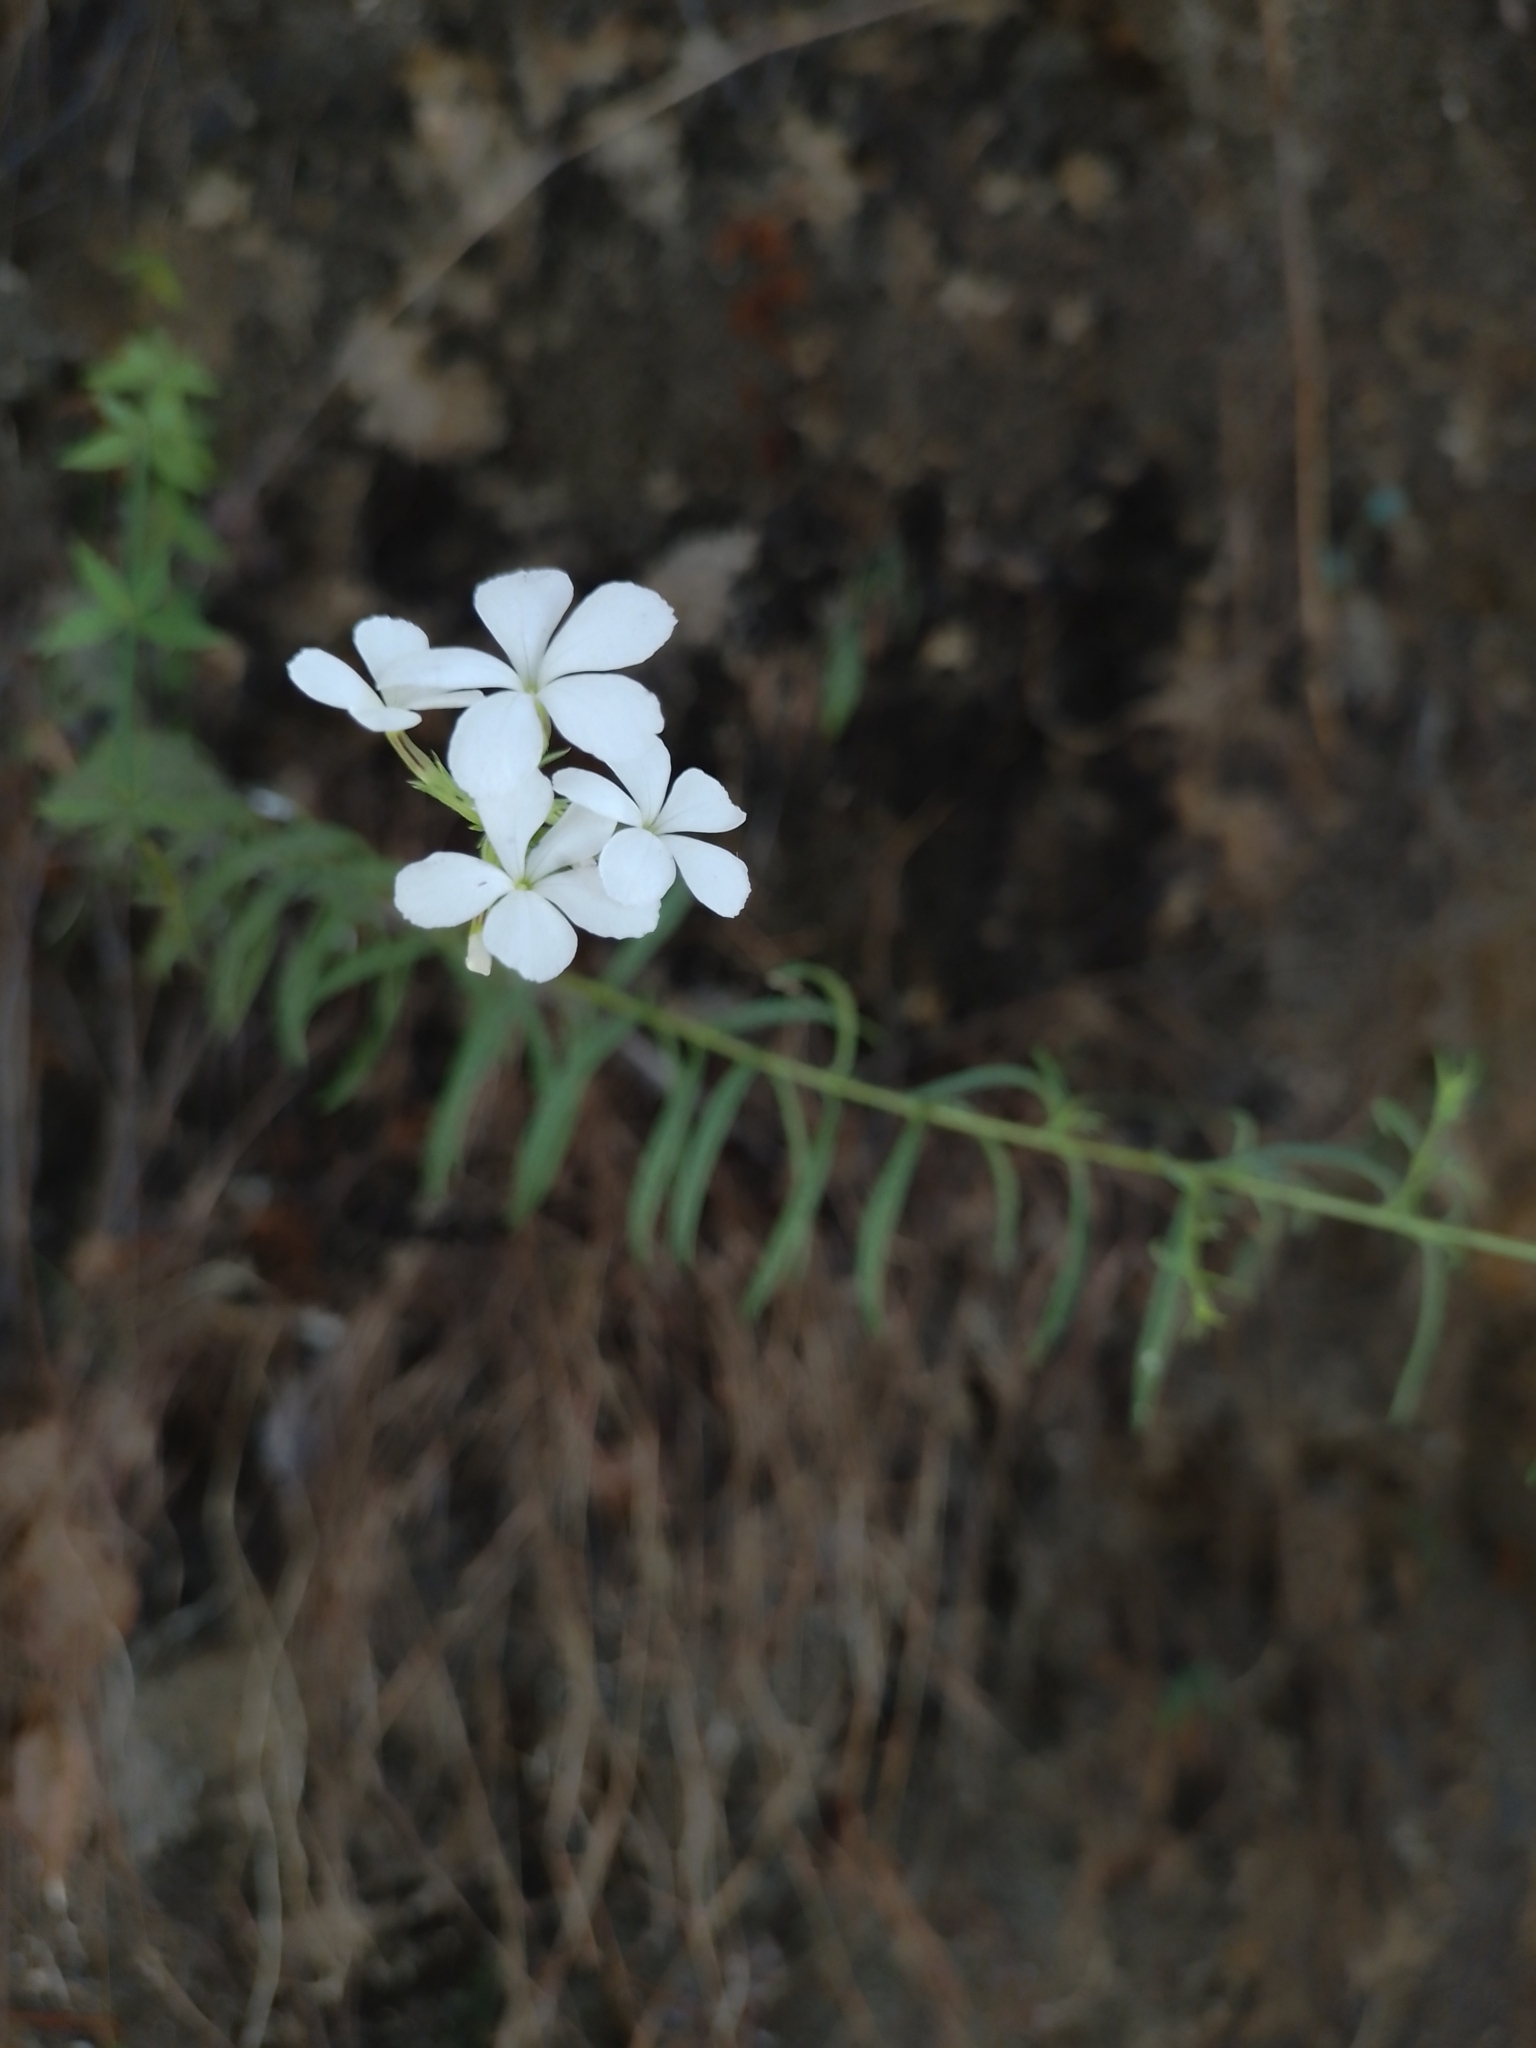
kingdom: Plantae
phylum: Tracheophyta
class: Magnoliopsida
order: Lamiales
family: Orobanchaceae
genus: Buchnera
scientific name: Buchnera pusilla
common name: Pygmy bluehearts
